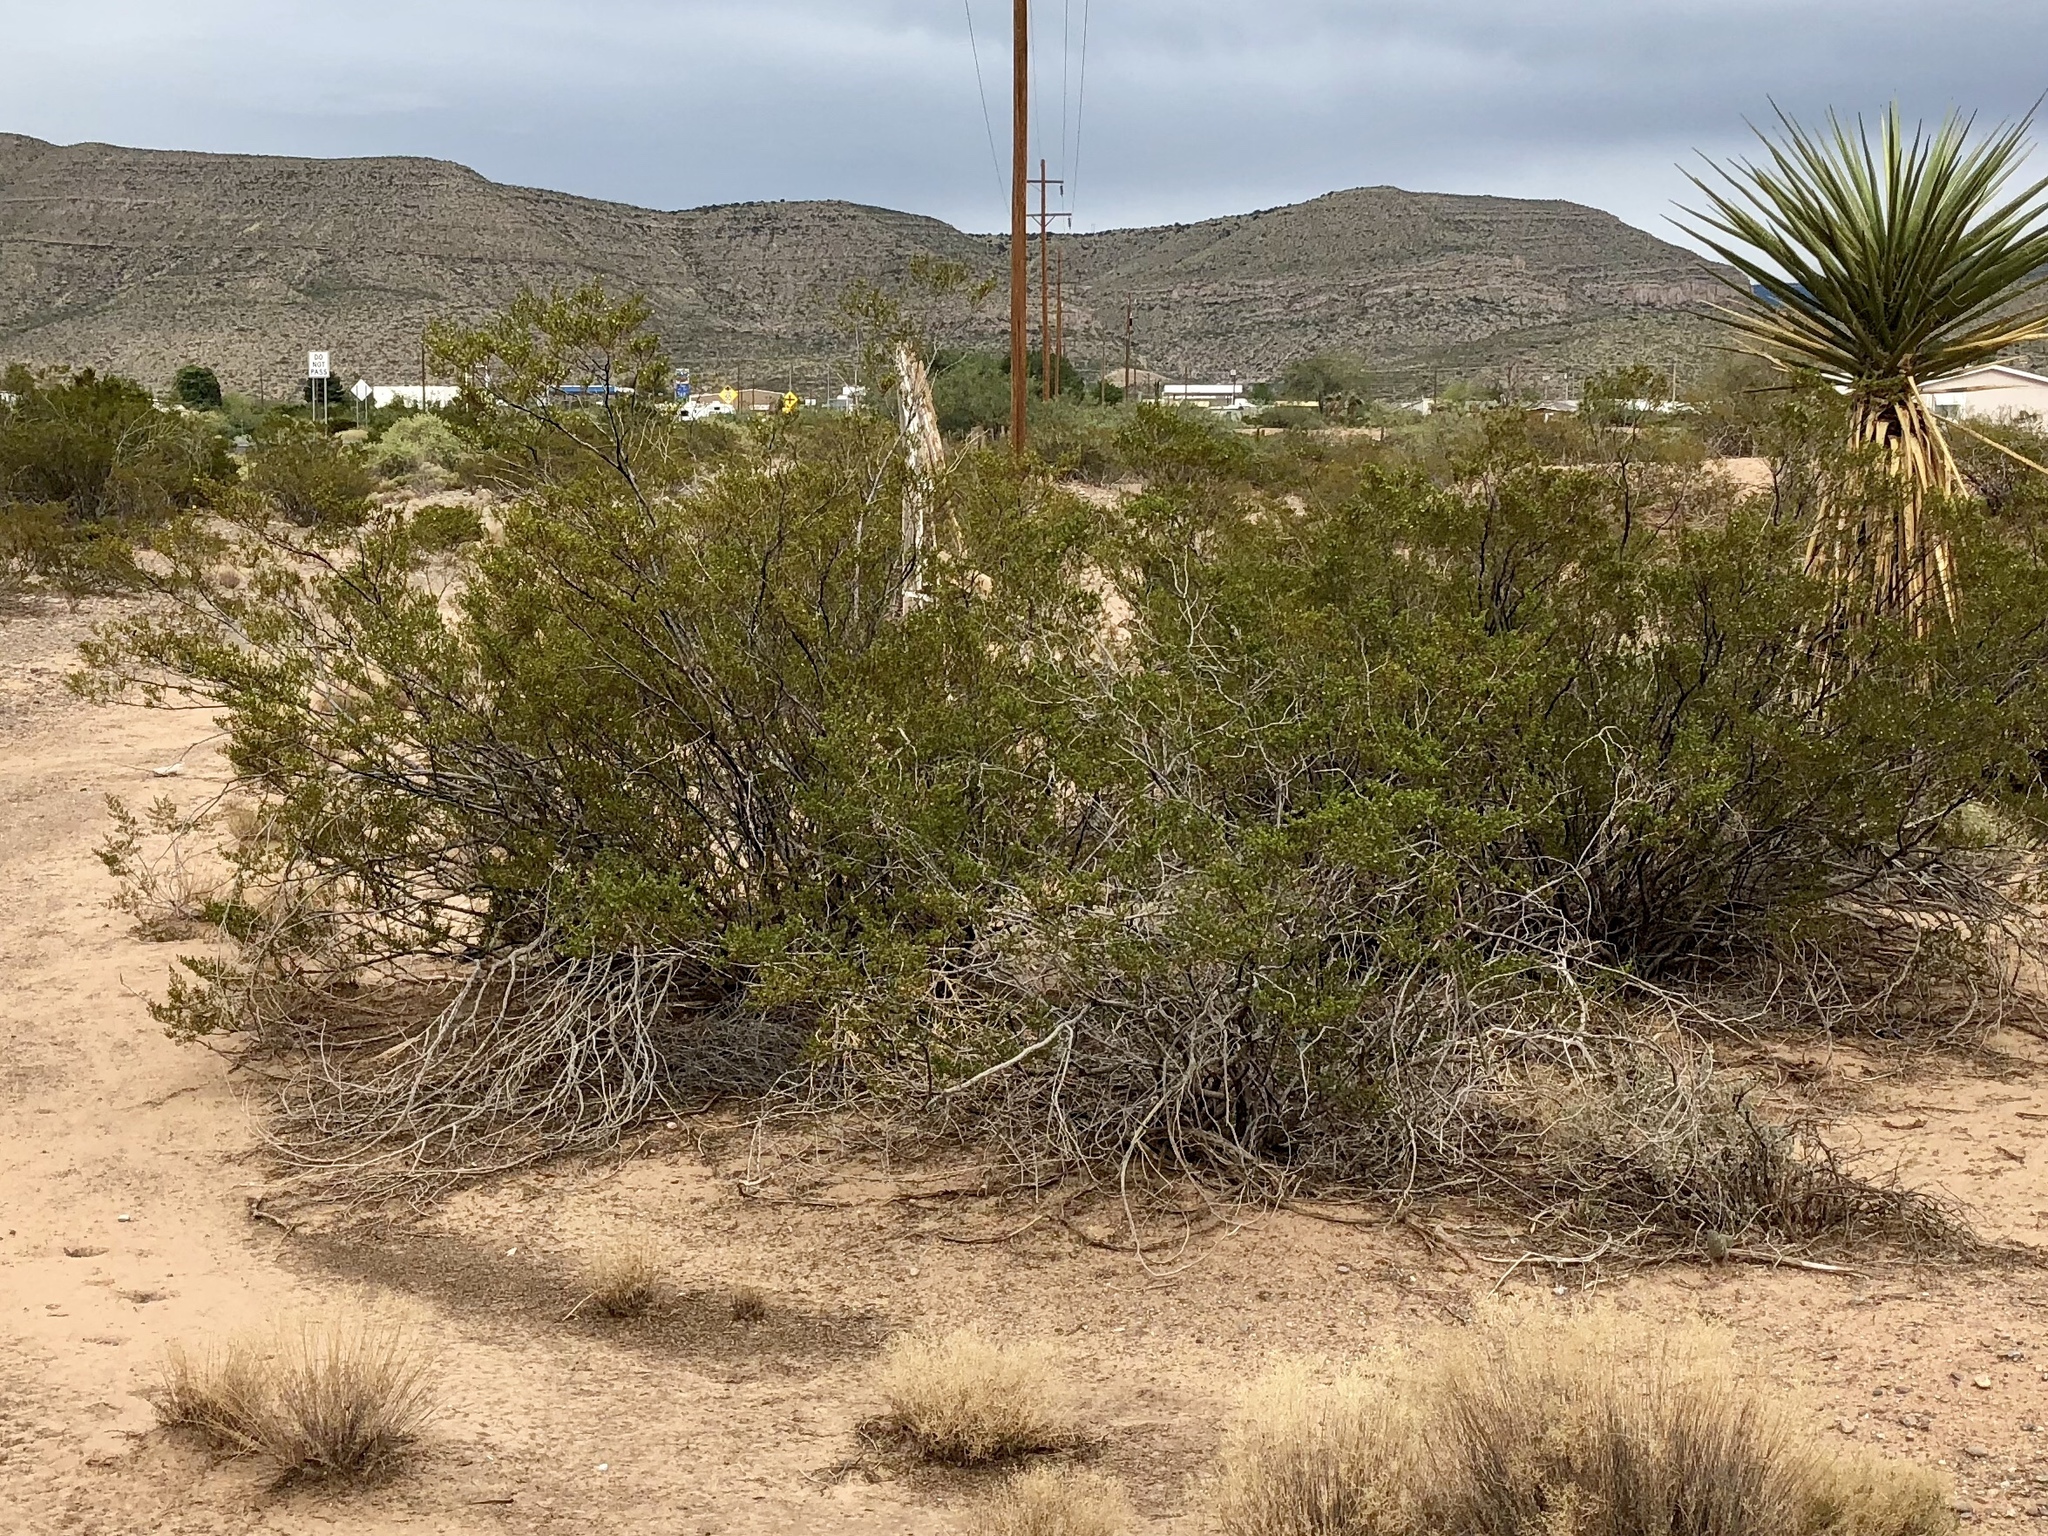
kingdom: Plantae
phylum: Tracheophyta
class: Magnoliopsida
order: Zygophyllales
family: Zygophyllaceae
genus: Larrea
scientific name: Larrea tridentata
